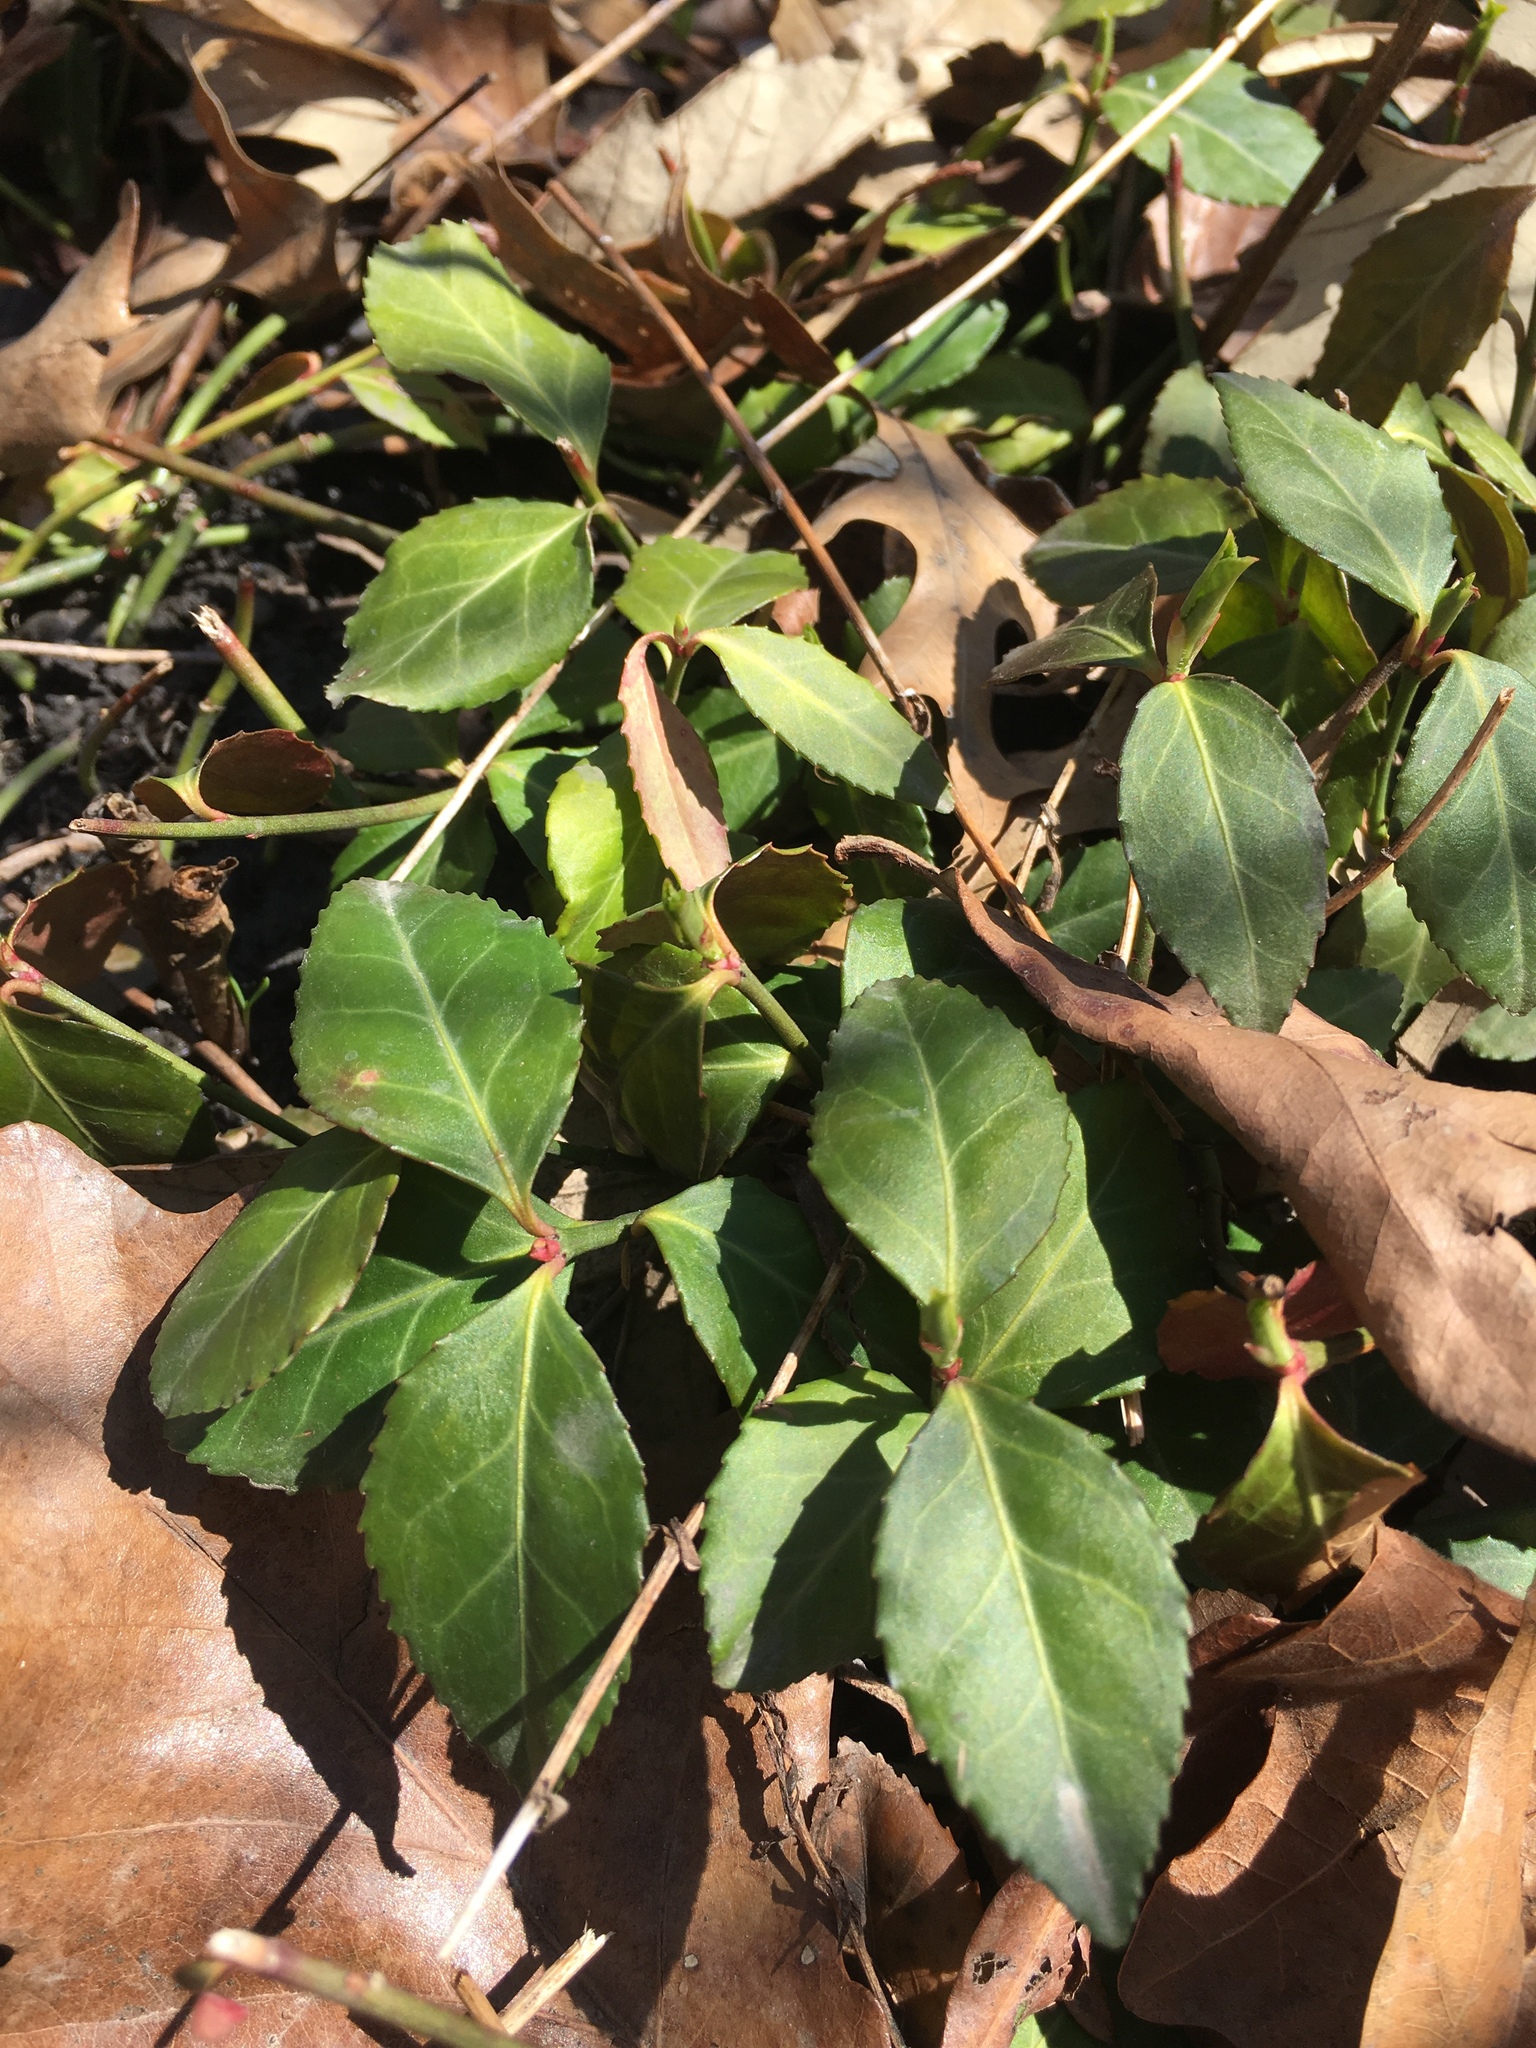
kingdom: Plantae
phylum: Tracheophyta
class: Magnoliopsida
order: Celastrales
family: Celastraceae
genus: Euonymus
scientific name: Euonymus fortunei
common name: Climbing euonymus
